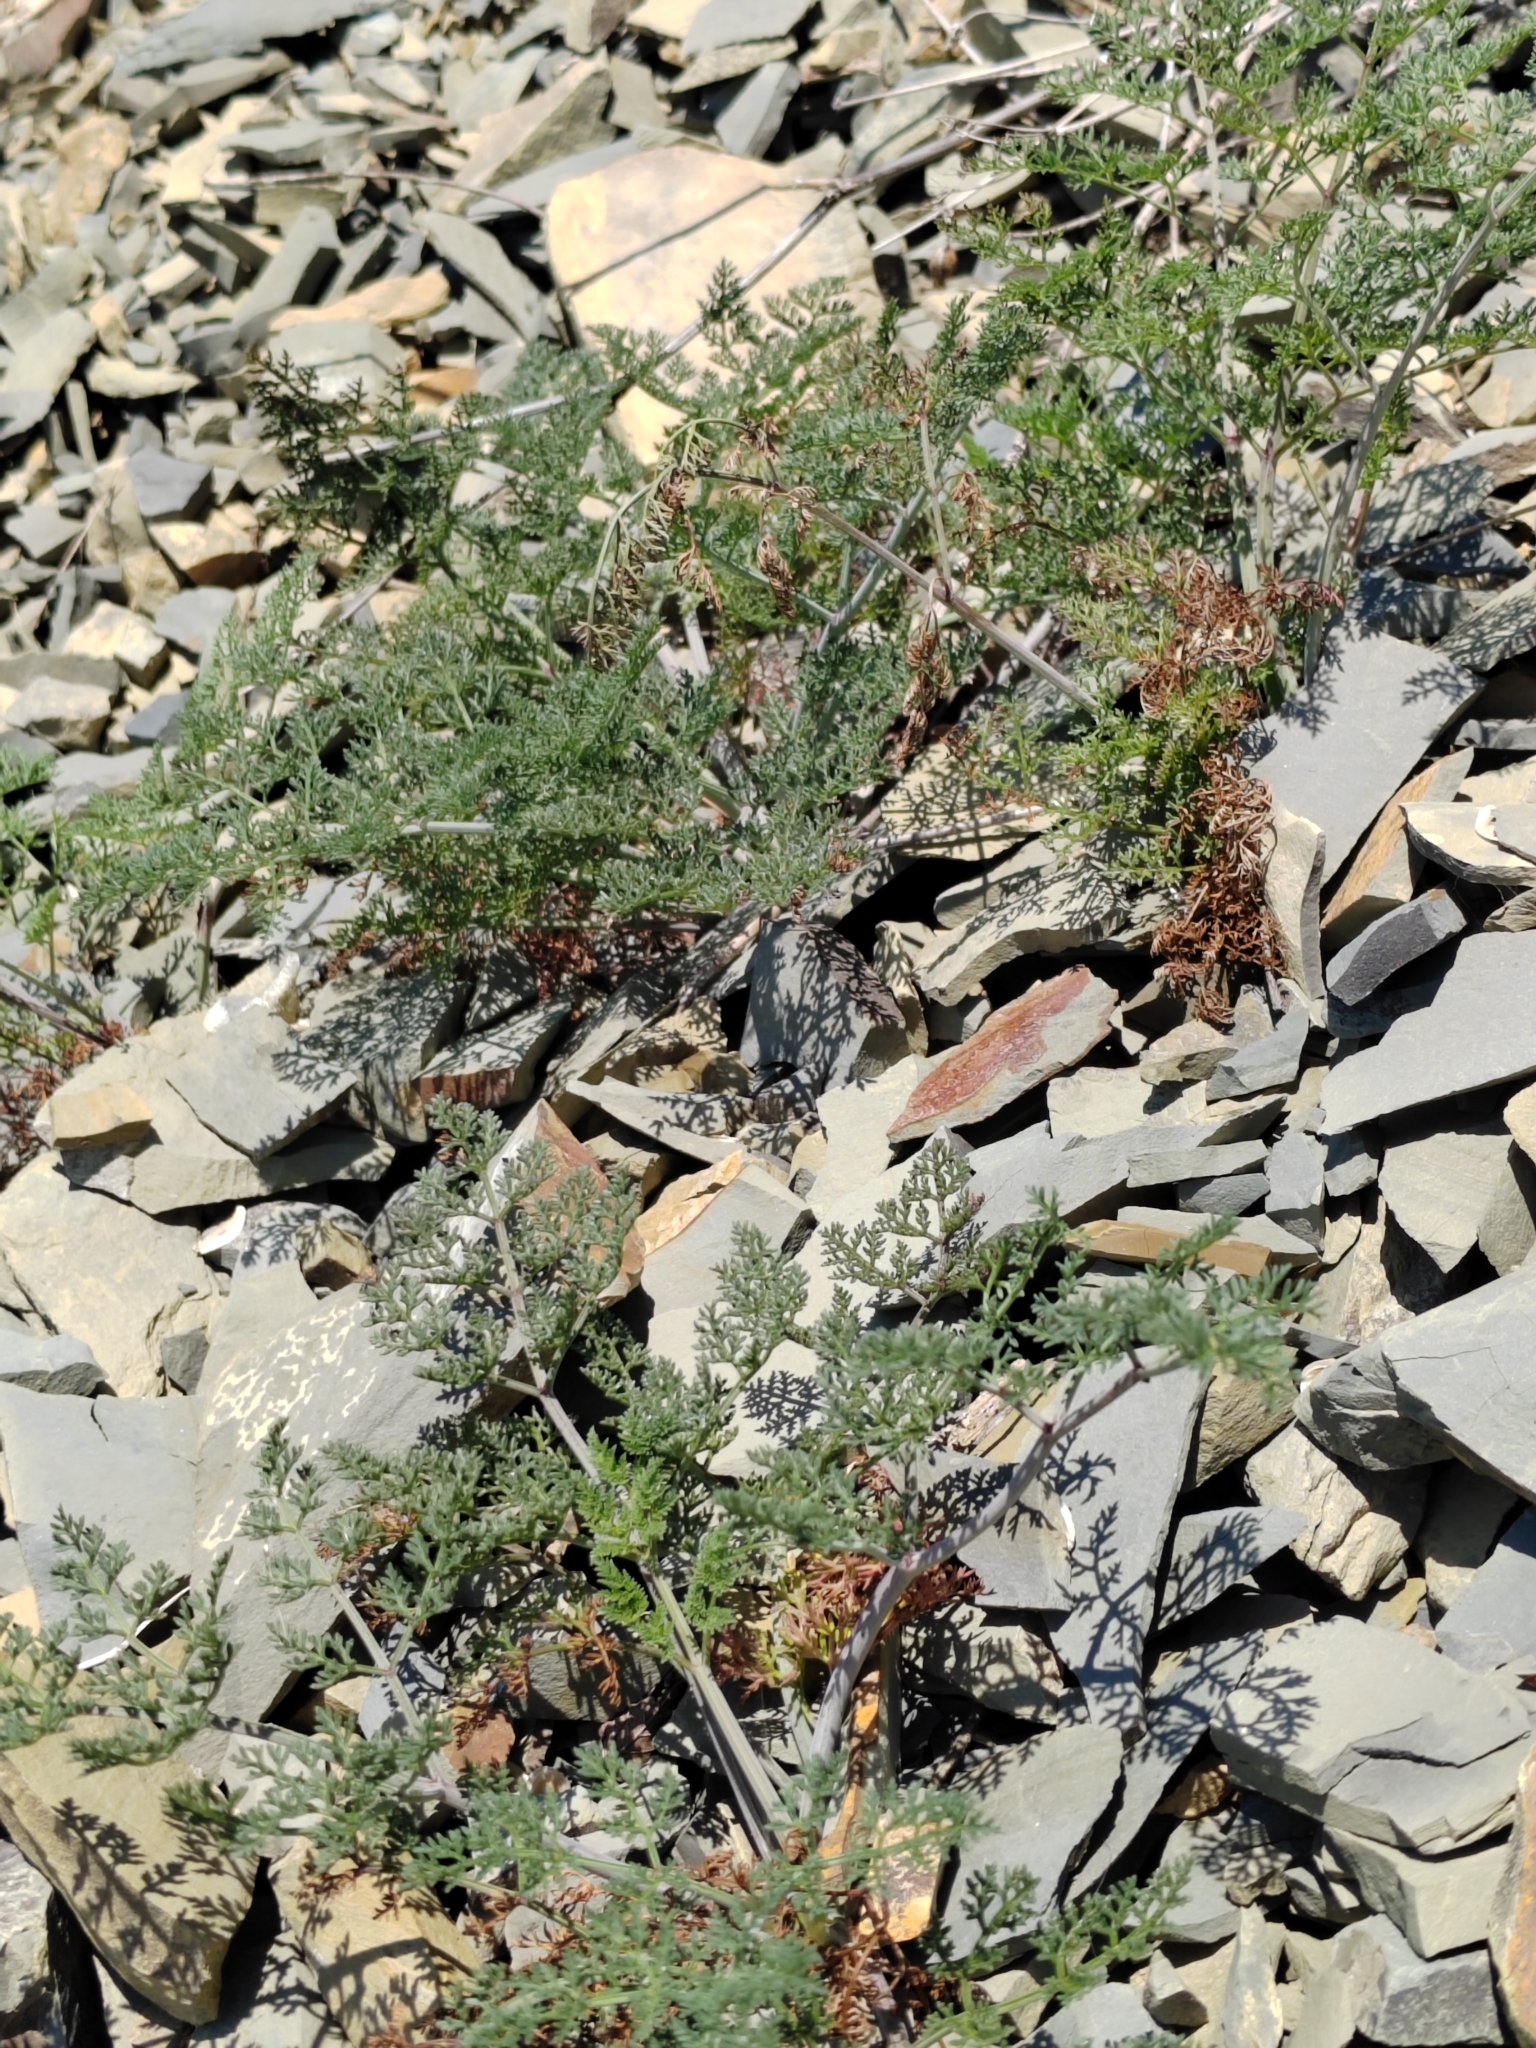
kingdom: Plantae
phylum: Tracheophyta
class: Magnoliopsida
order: Fagales
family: Betulaceae
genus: Carpinus
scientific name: Carpinus orientalis
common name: Eastern hornbeam
